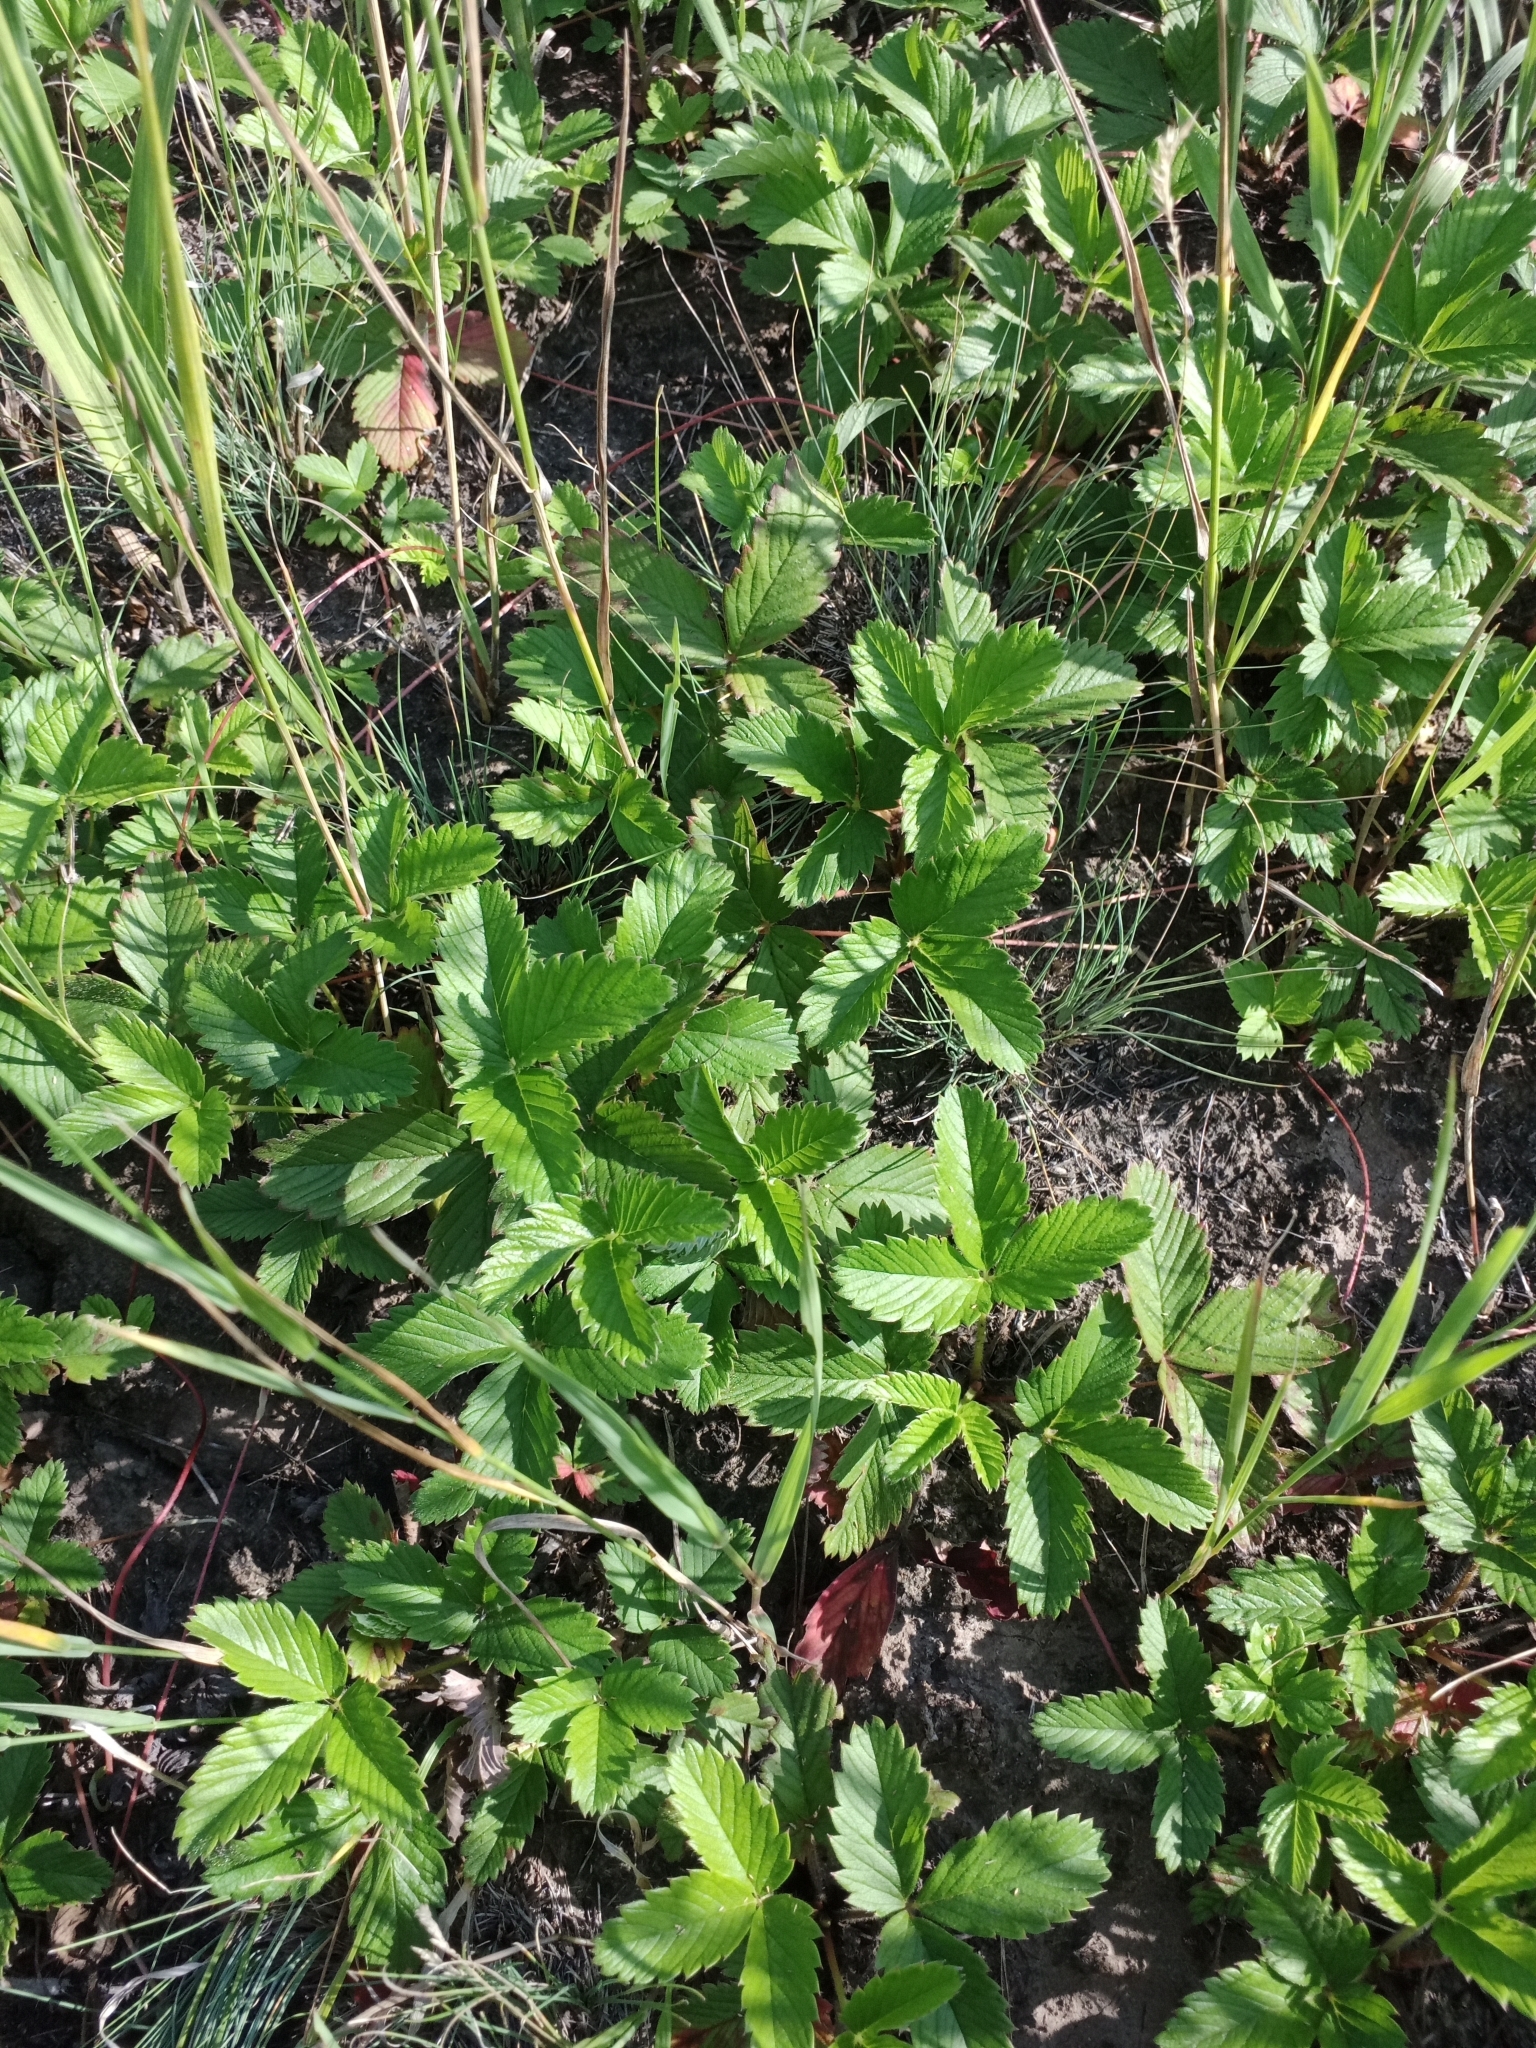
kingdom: Plantae
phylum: Tracheophyta
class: Magnoliopsida
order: Rosales
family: Rosaceae
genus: Fragaria
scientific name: Fragaria viridis
